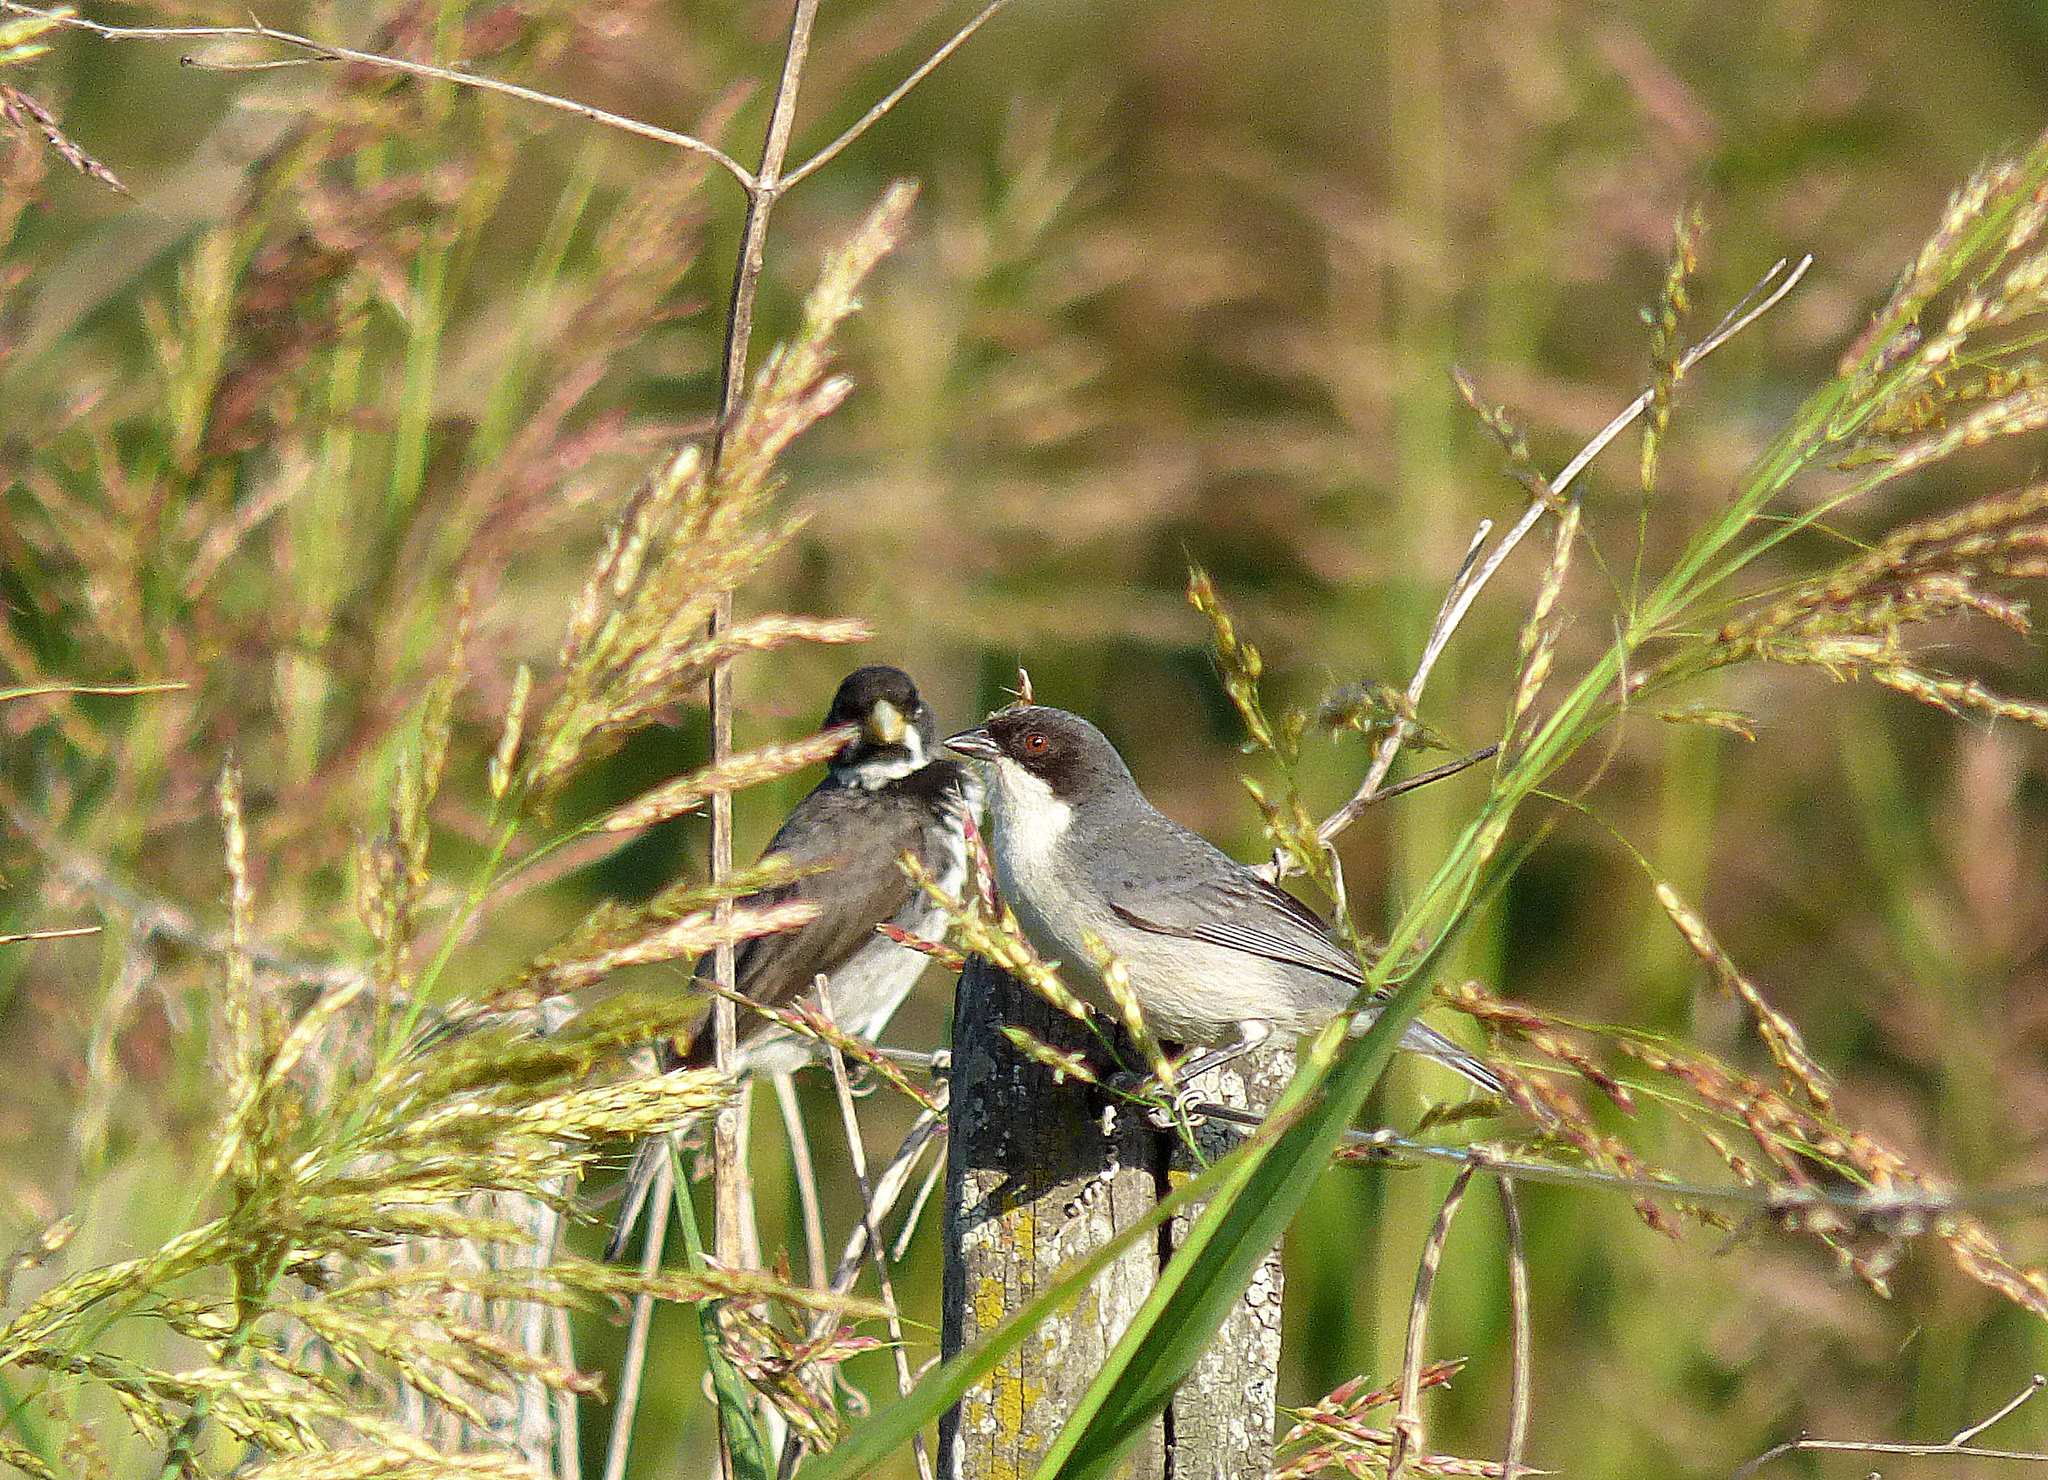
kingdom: Animalia
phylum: Chordata
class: Aves
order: Passeriformes
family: Thraupidae
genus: Microspingus
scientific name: Microspingus melanoleucus
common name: Black-capped warbling-finch
